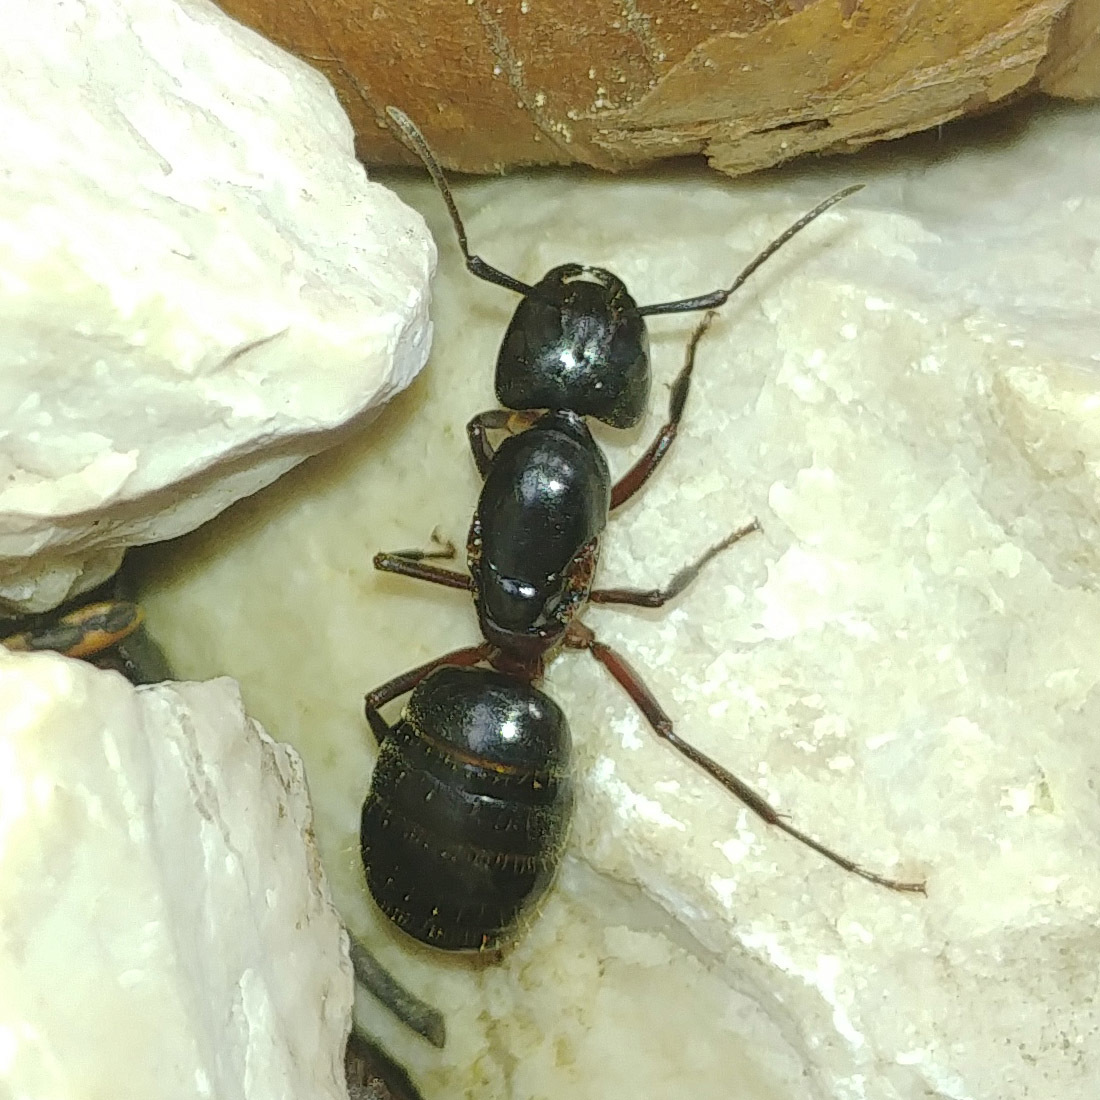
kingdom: Animalia
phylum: Arthropoda
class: Insecta
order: Hymenoptera
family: Formicidae
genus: Camponotus
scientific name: Camponotus herculeanus
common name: Hercules ant
